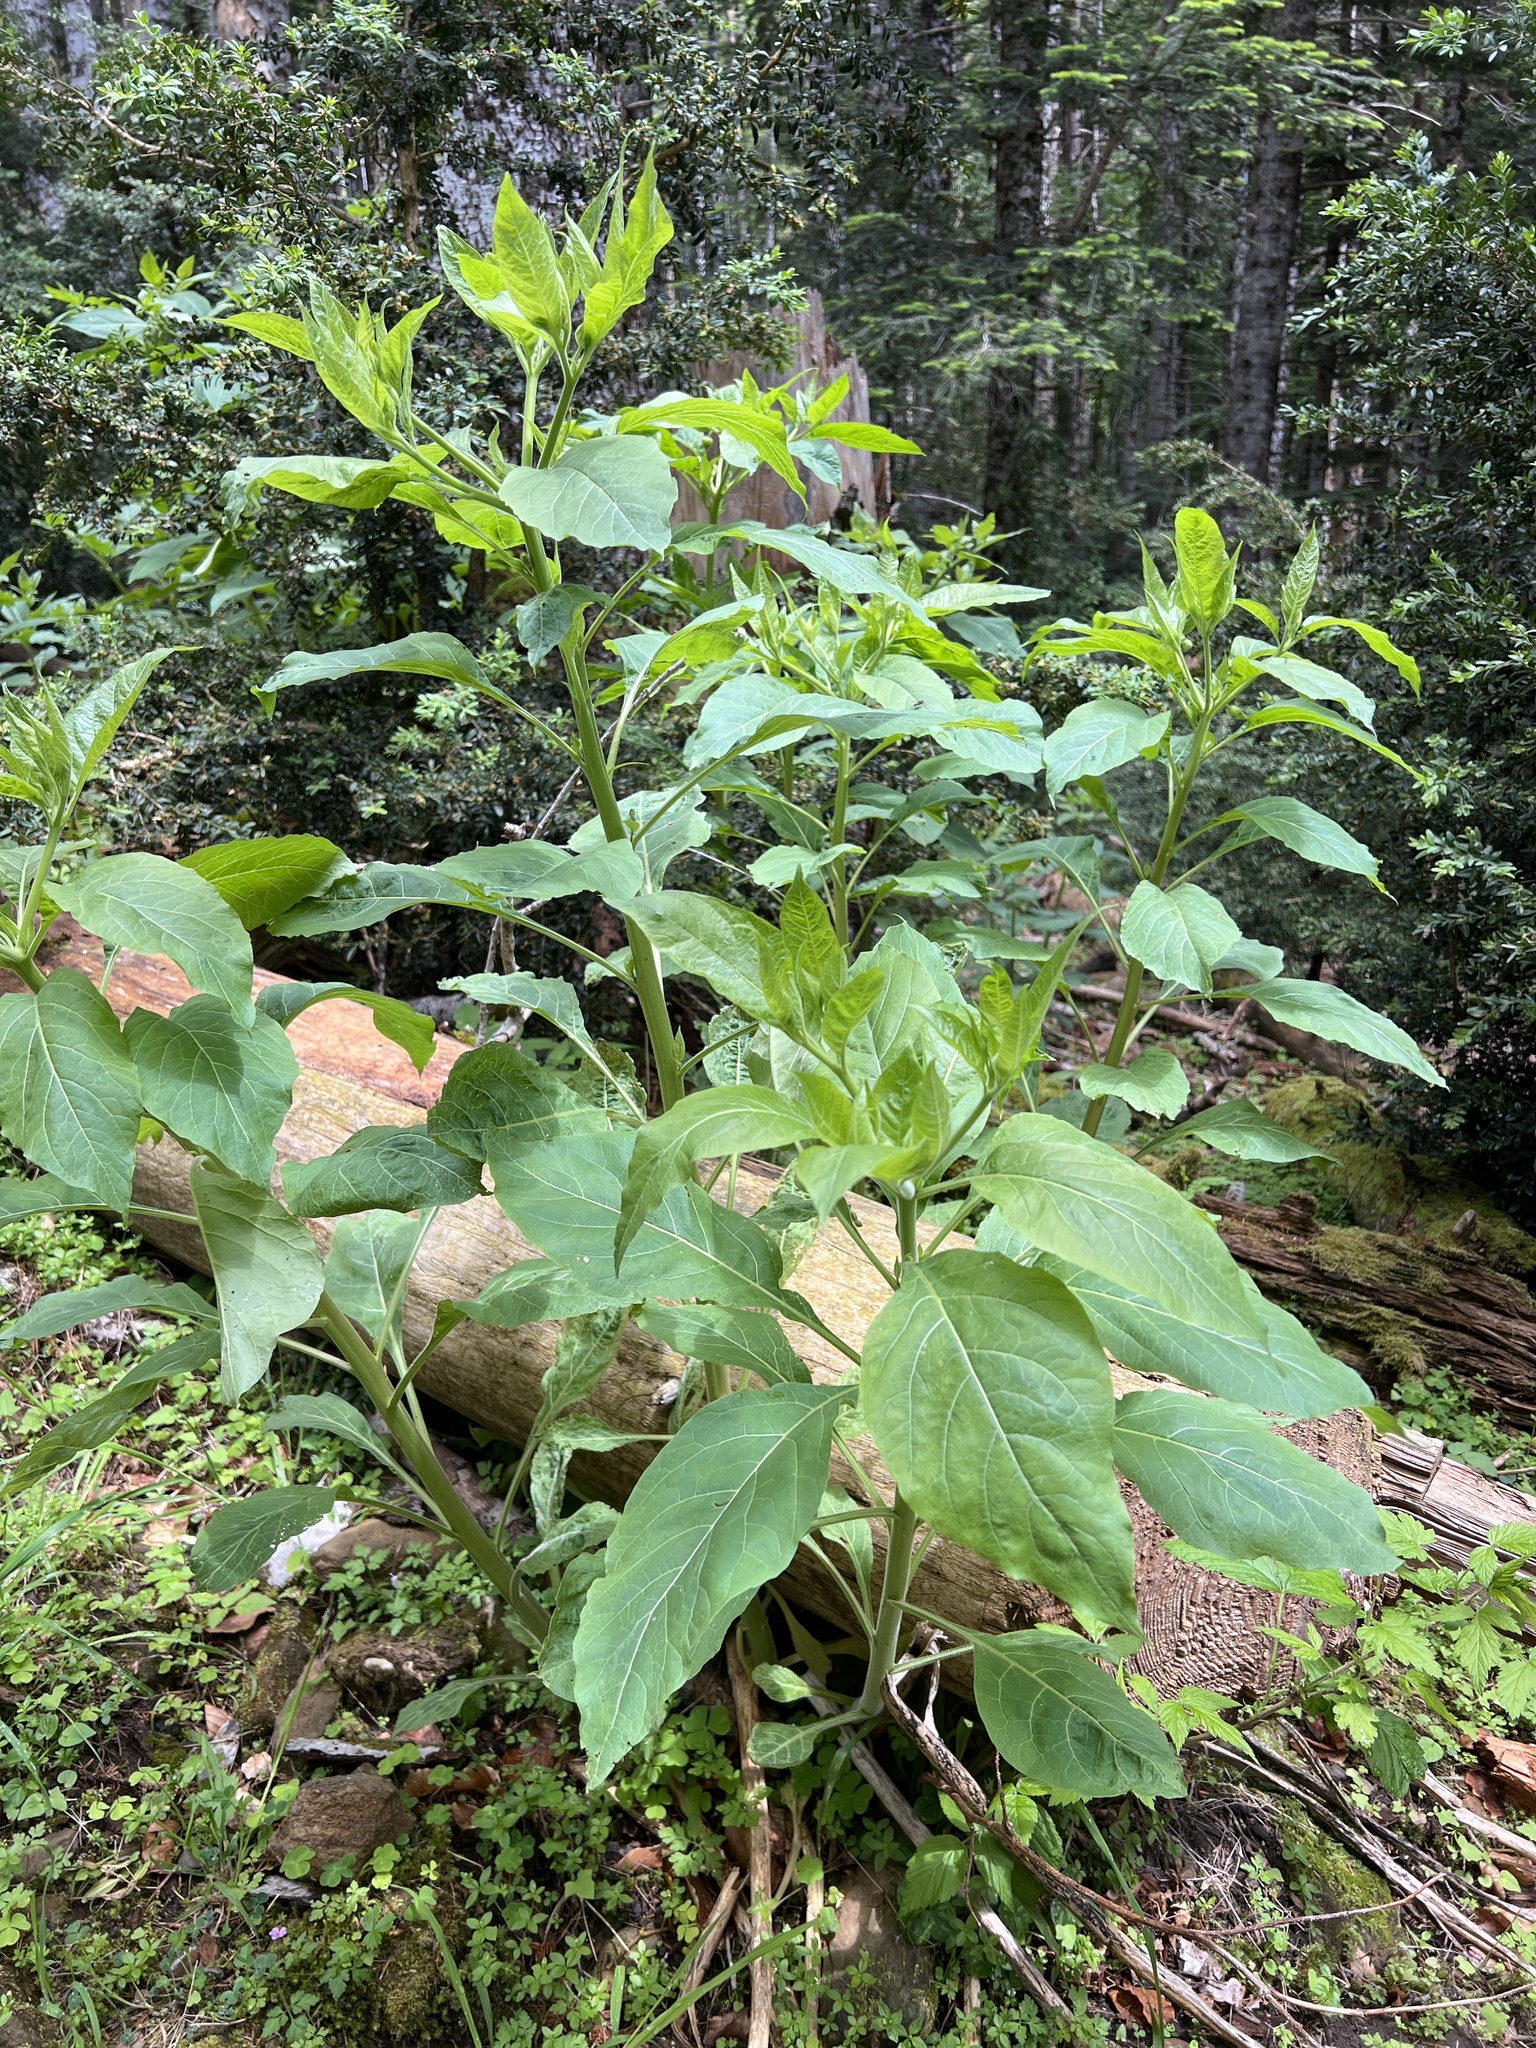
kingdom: Plantae
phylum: Tracheophyta
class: Magnoliopsida
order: Solanales
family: Solanaceae
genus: Atropa
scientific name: Atropa belladonna
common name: Deadly nightshade
